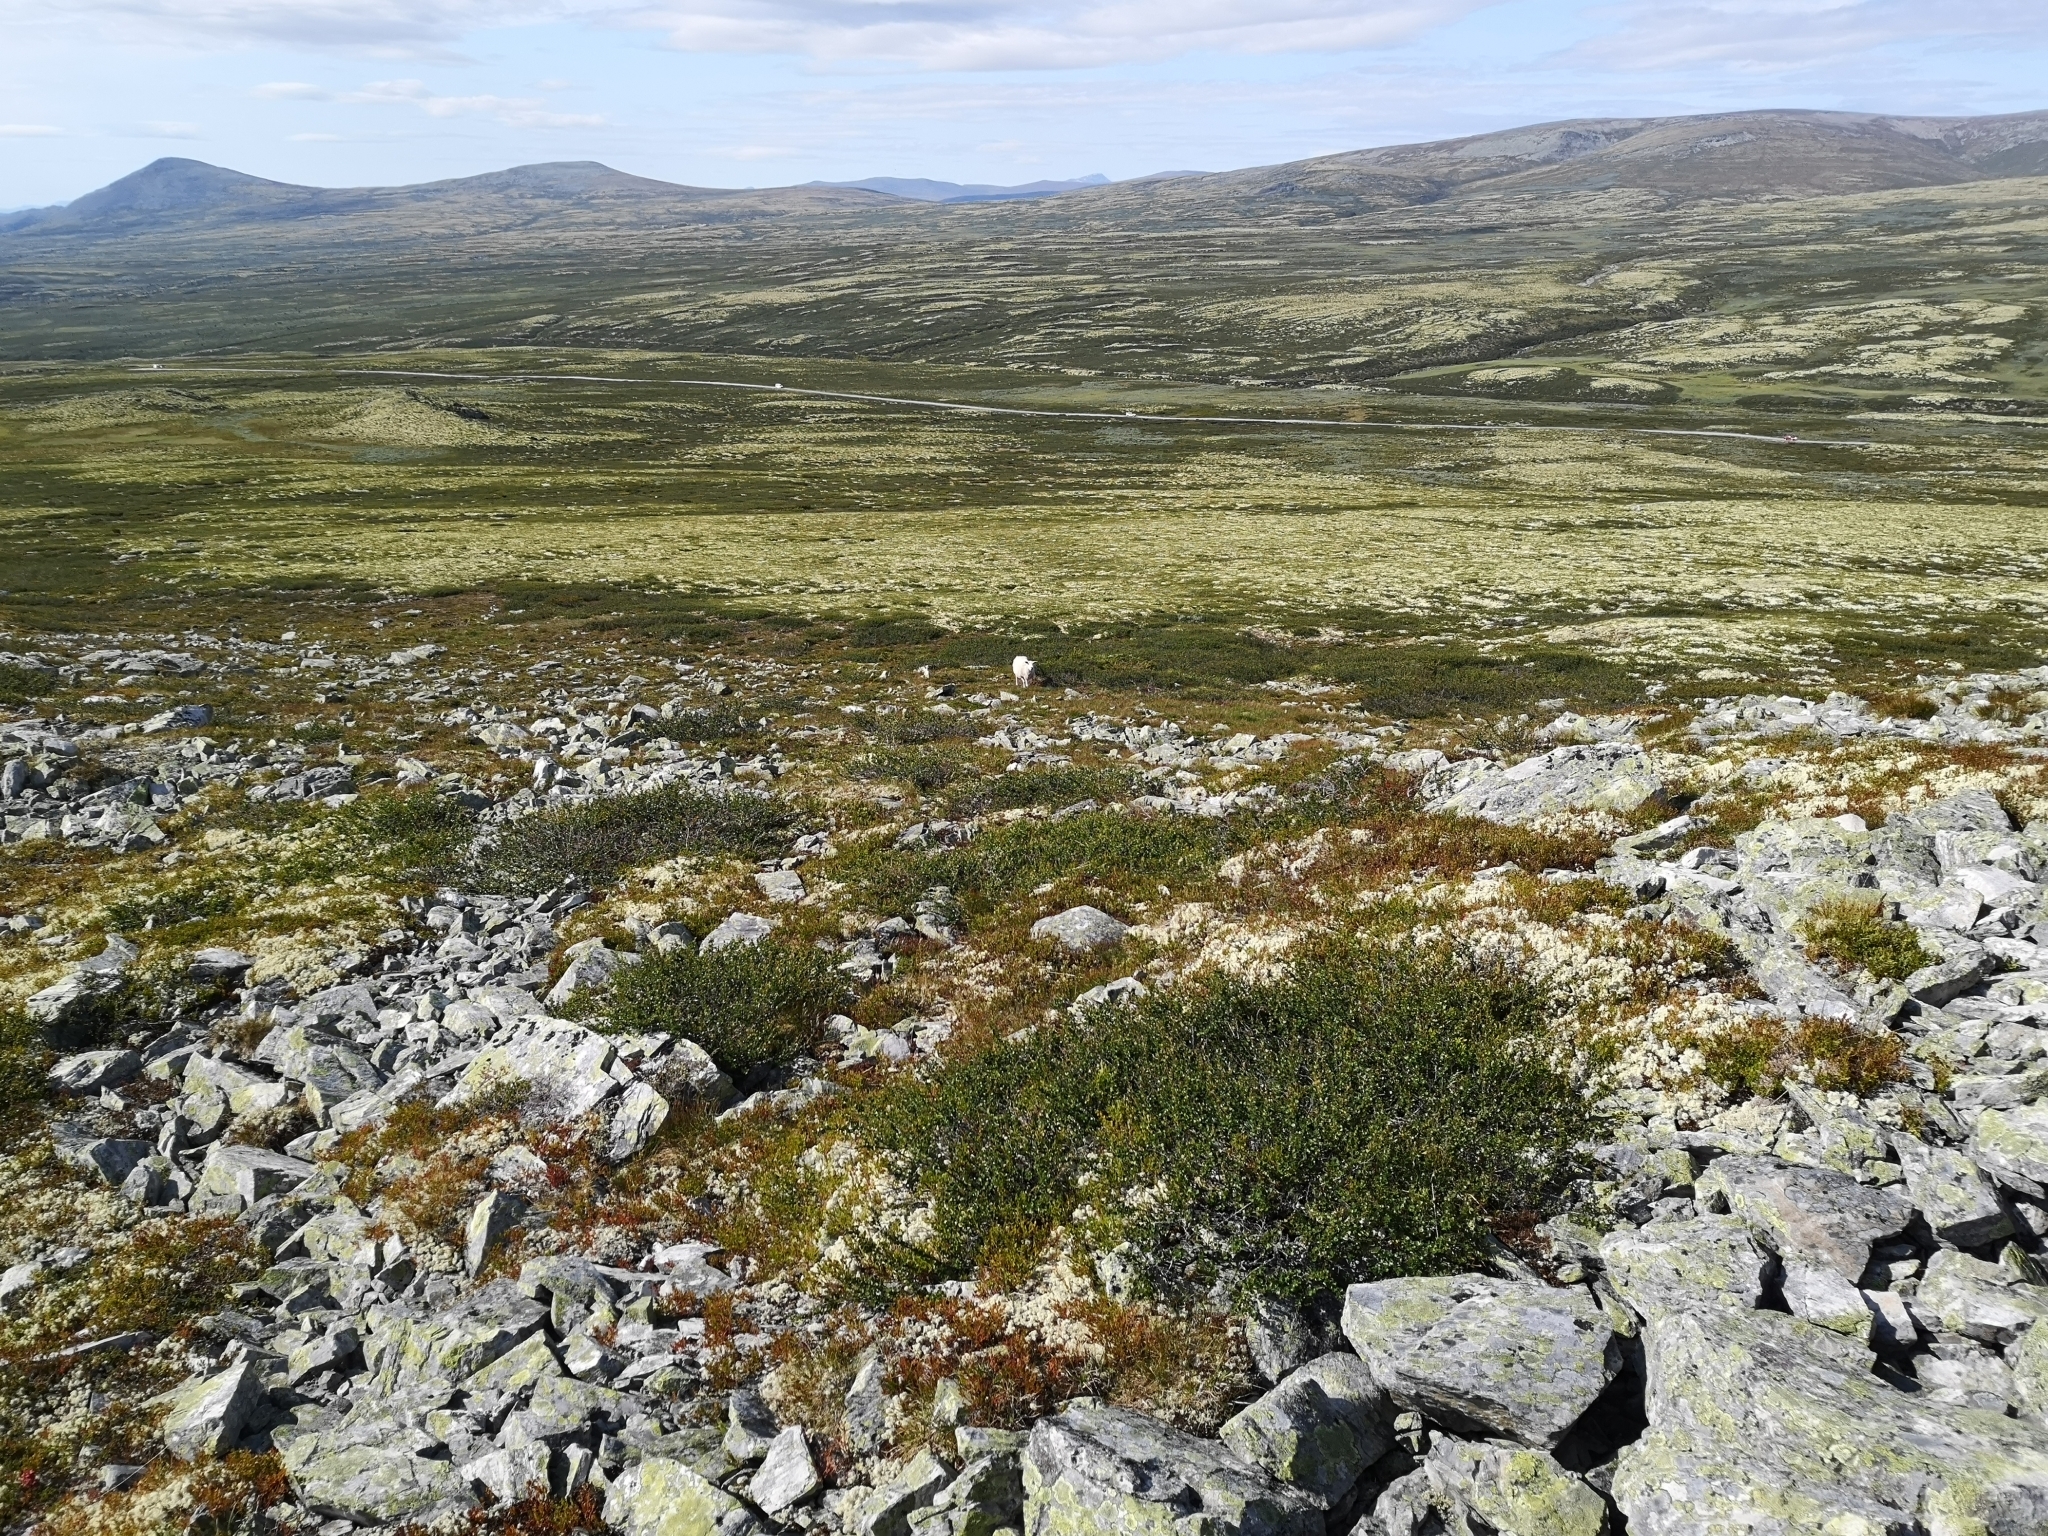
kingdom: Plantae
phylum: Tracheophyta
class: Magnoliopsida
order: Fagales
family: Betulaceae
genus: Betula
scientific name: Betula nana
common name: Arctic dwarf birch
